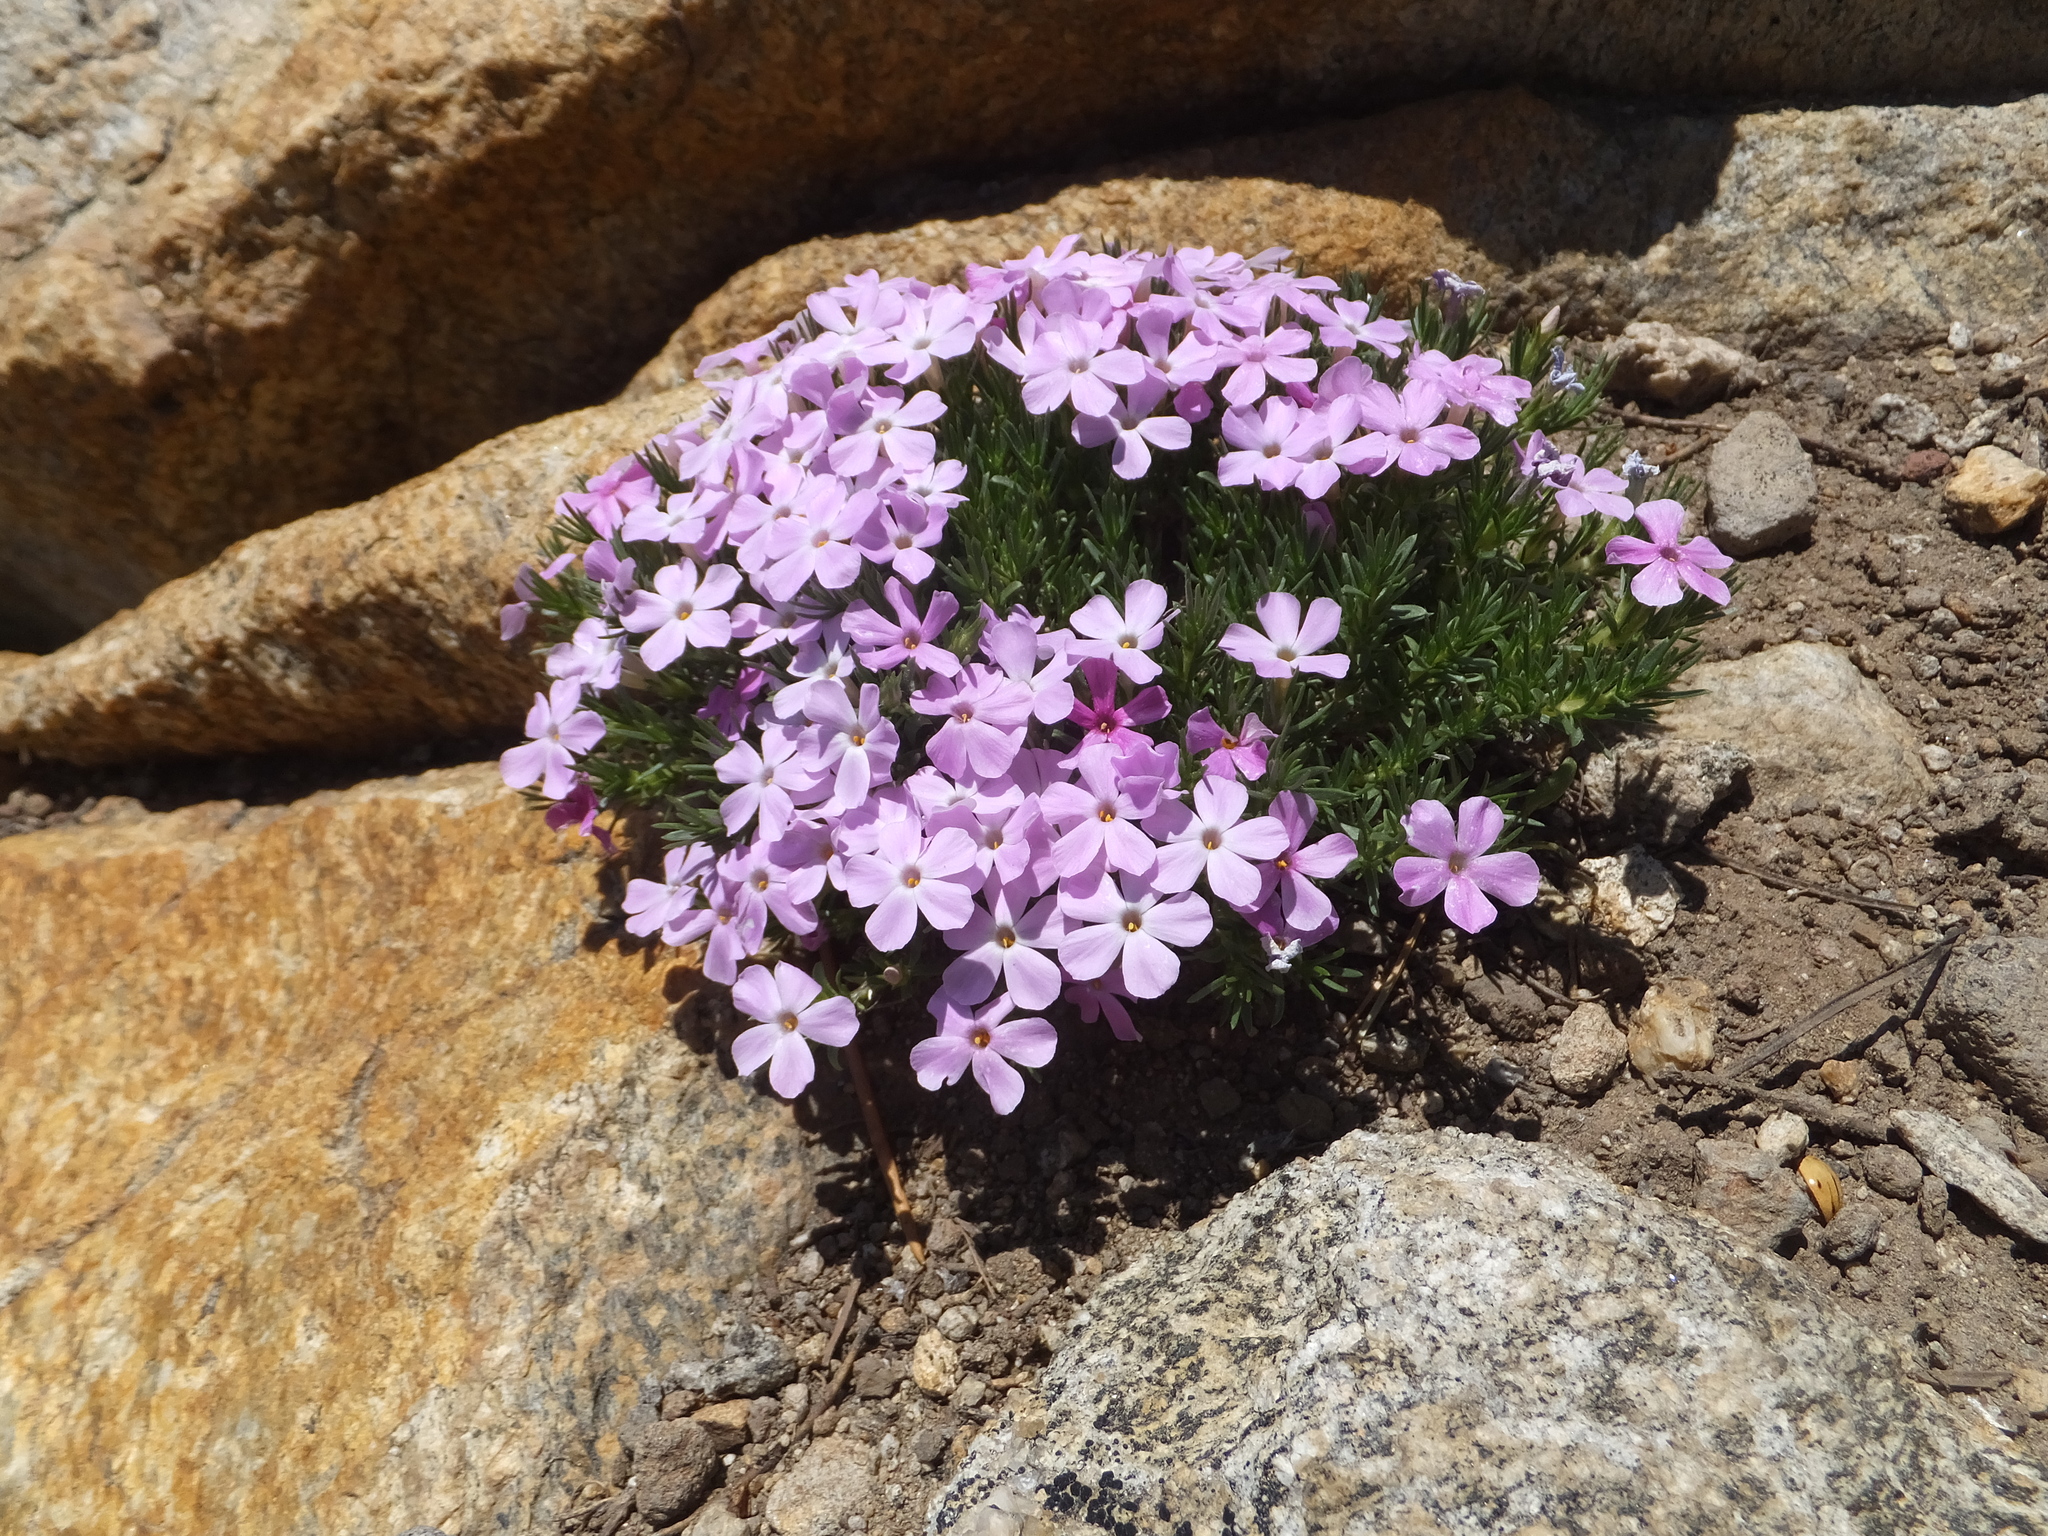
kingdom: Plantae
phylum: Tracheophyta
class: Magnoliopsida
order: Ericales
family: Polemoniaceae
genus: Phlox
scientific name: Phlox diffusa
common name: Mat phlox
